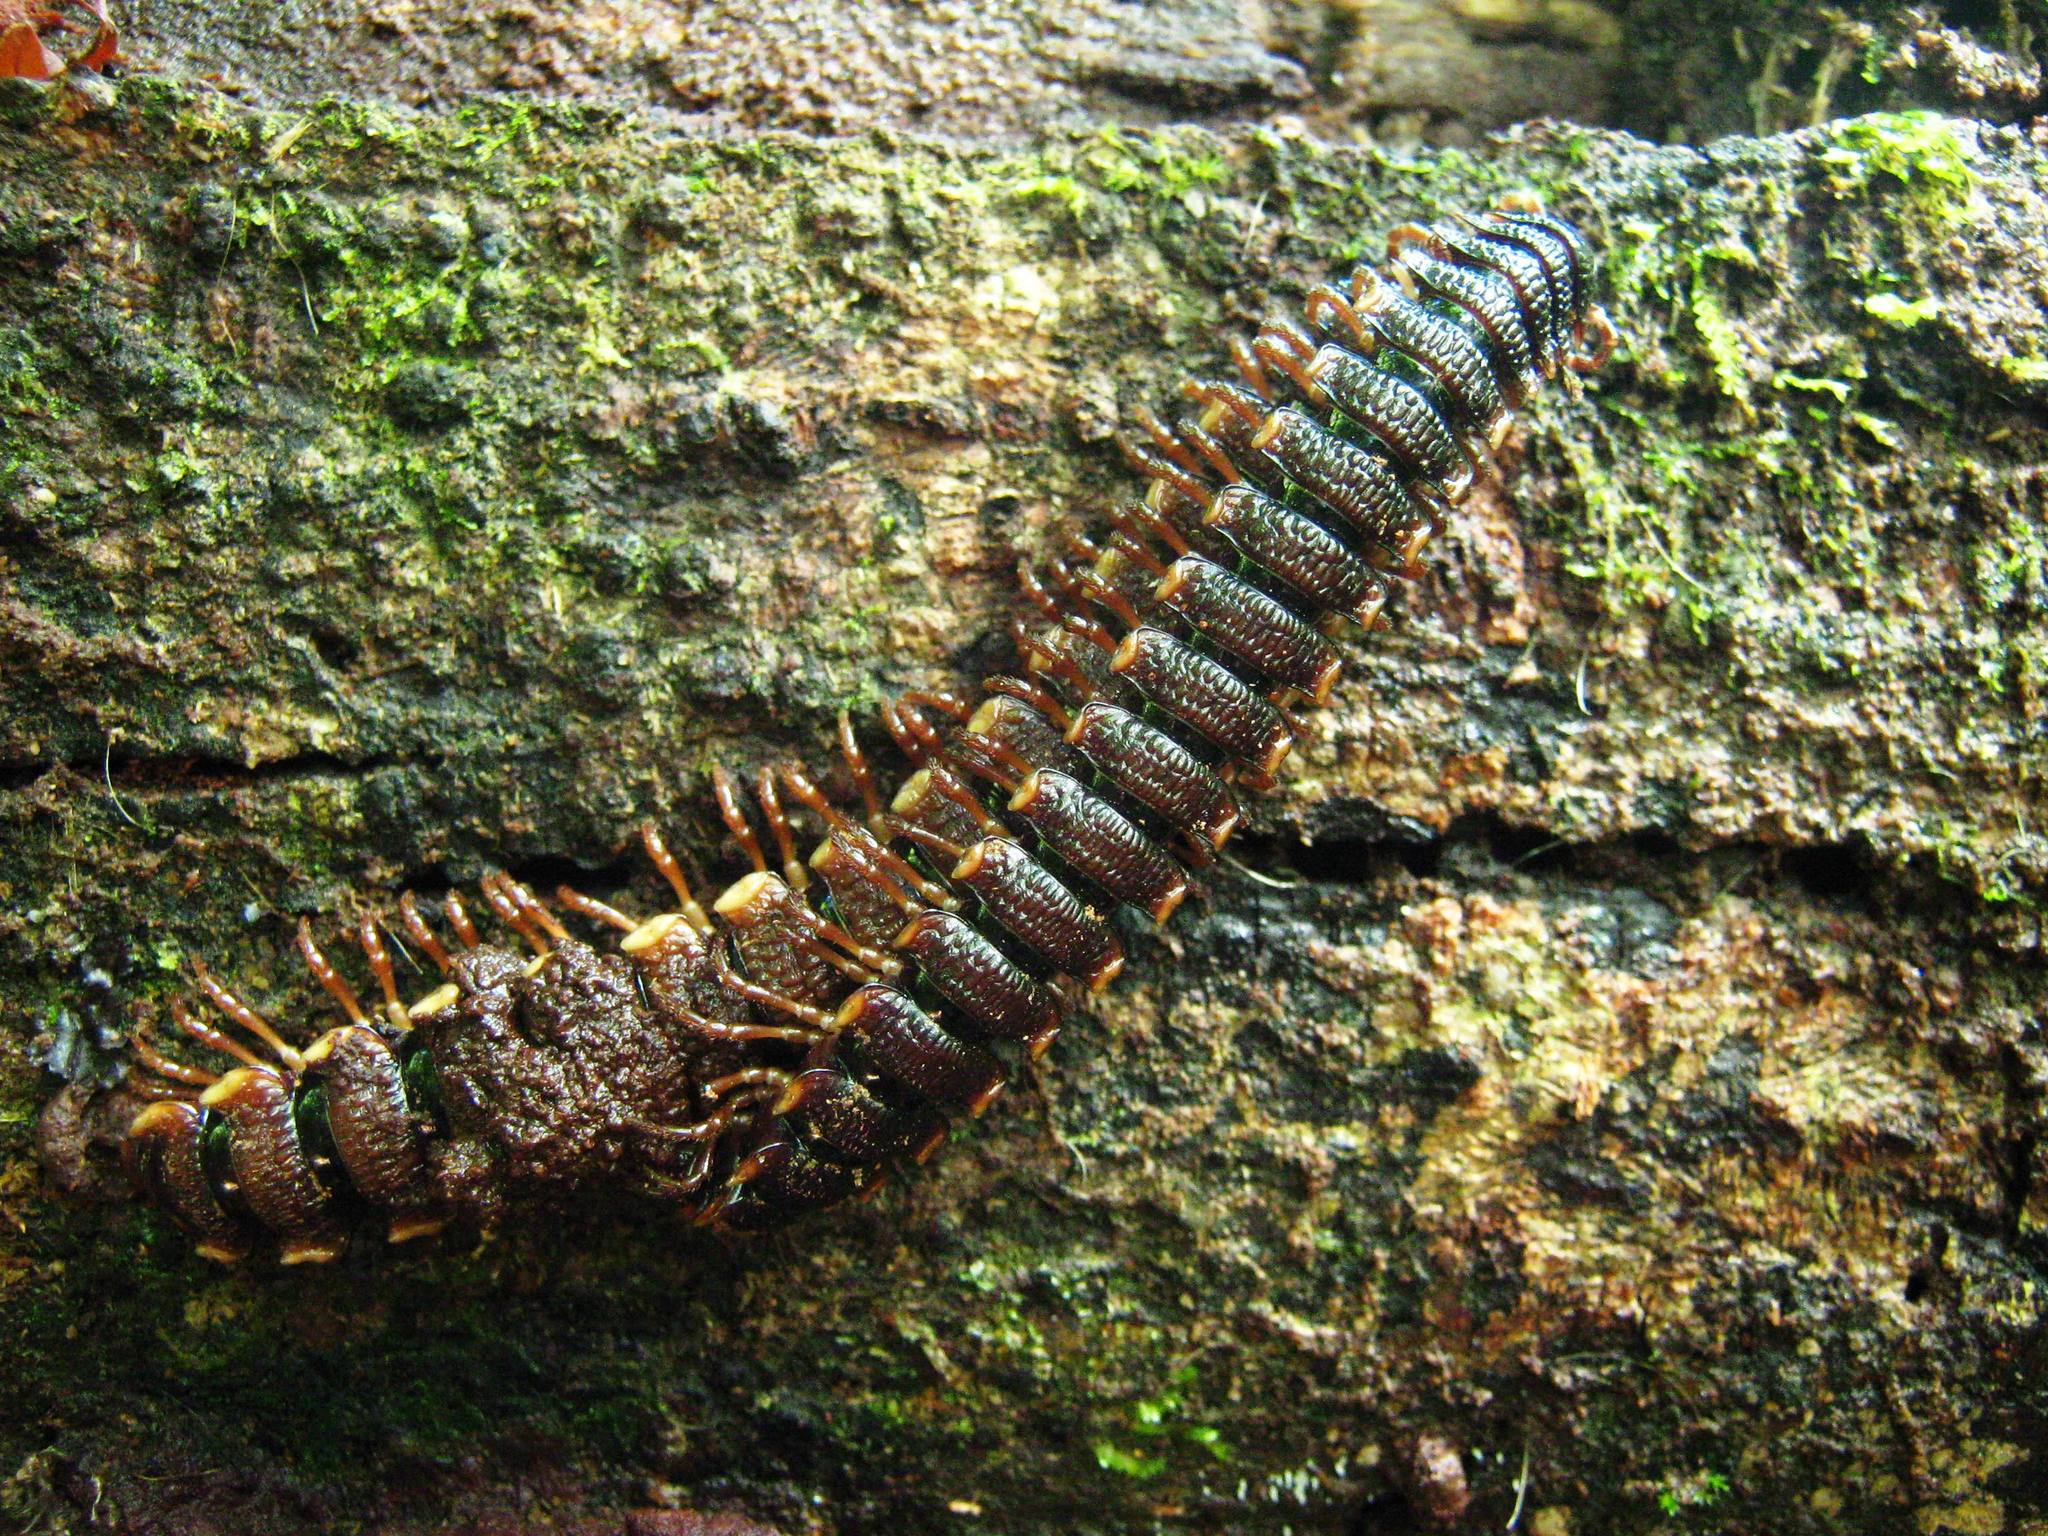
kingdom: Animalia
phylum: Arthropoda
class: Diplopoda
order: Polydesmida
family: Aphelidesmidae
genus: Amplinus
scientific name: Amplinus bitumidus
